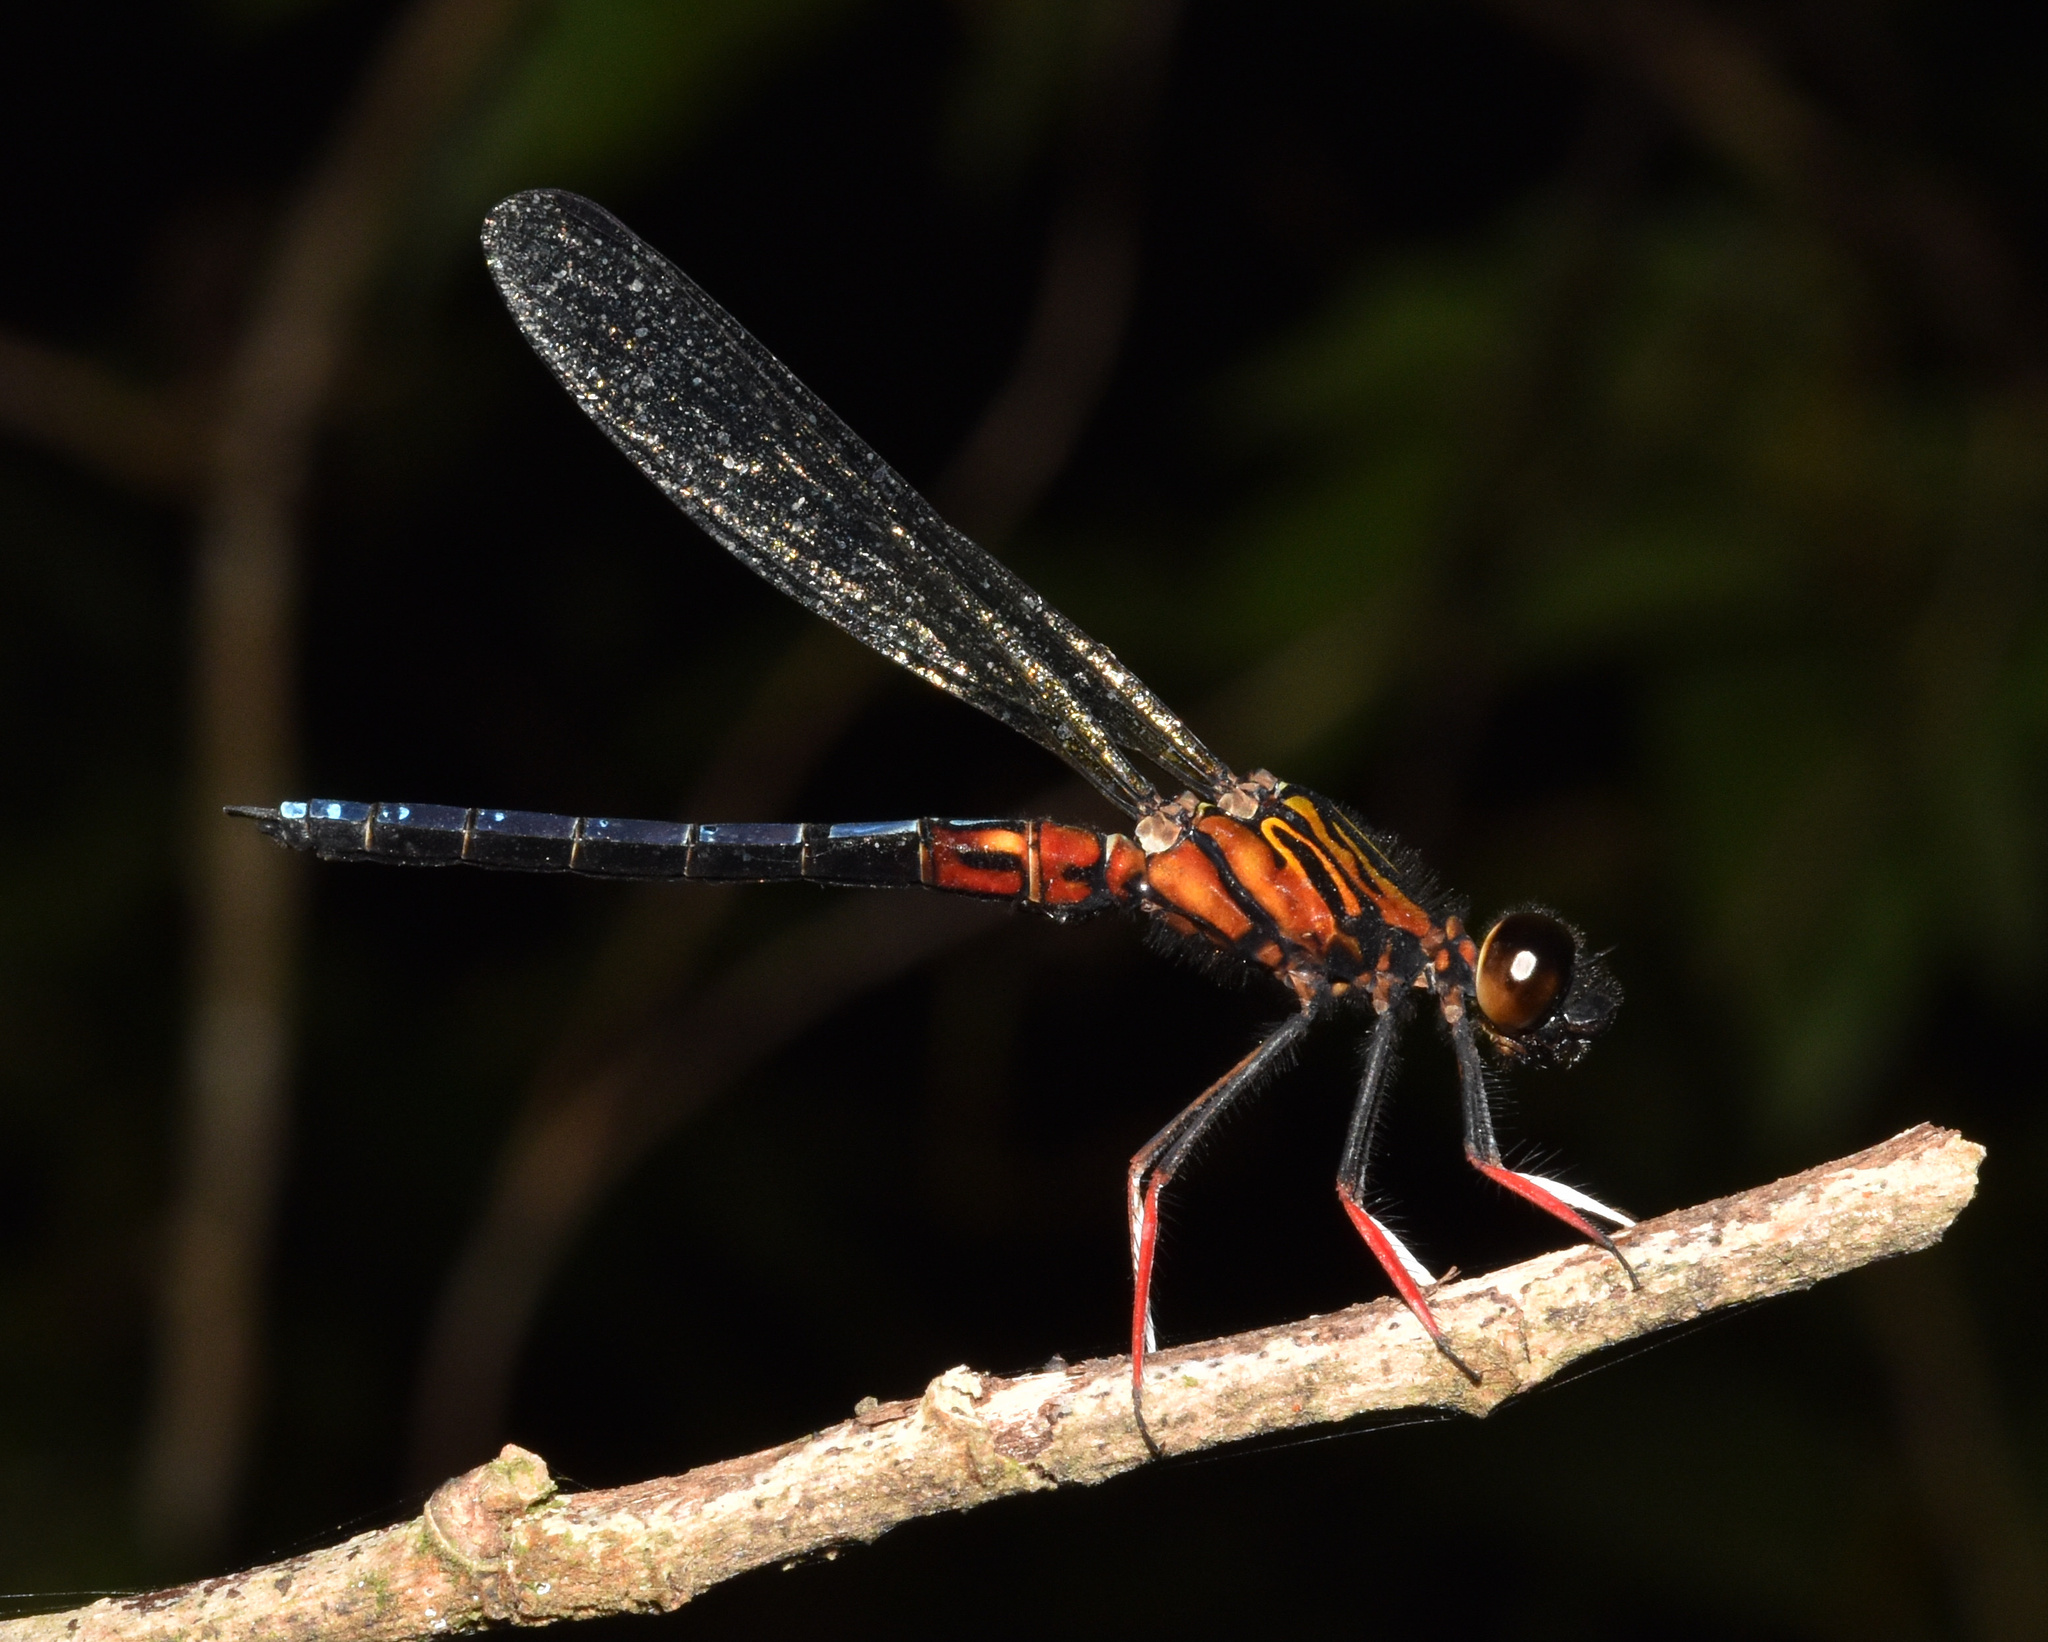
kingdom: Animalia
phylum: Arthropoda
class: Insecta
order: Odonata
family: Chlorocyphidae
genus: Platycypha
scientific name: Platycypha caligata
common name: Dancing jewel
